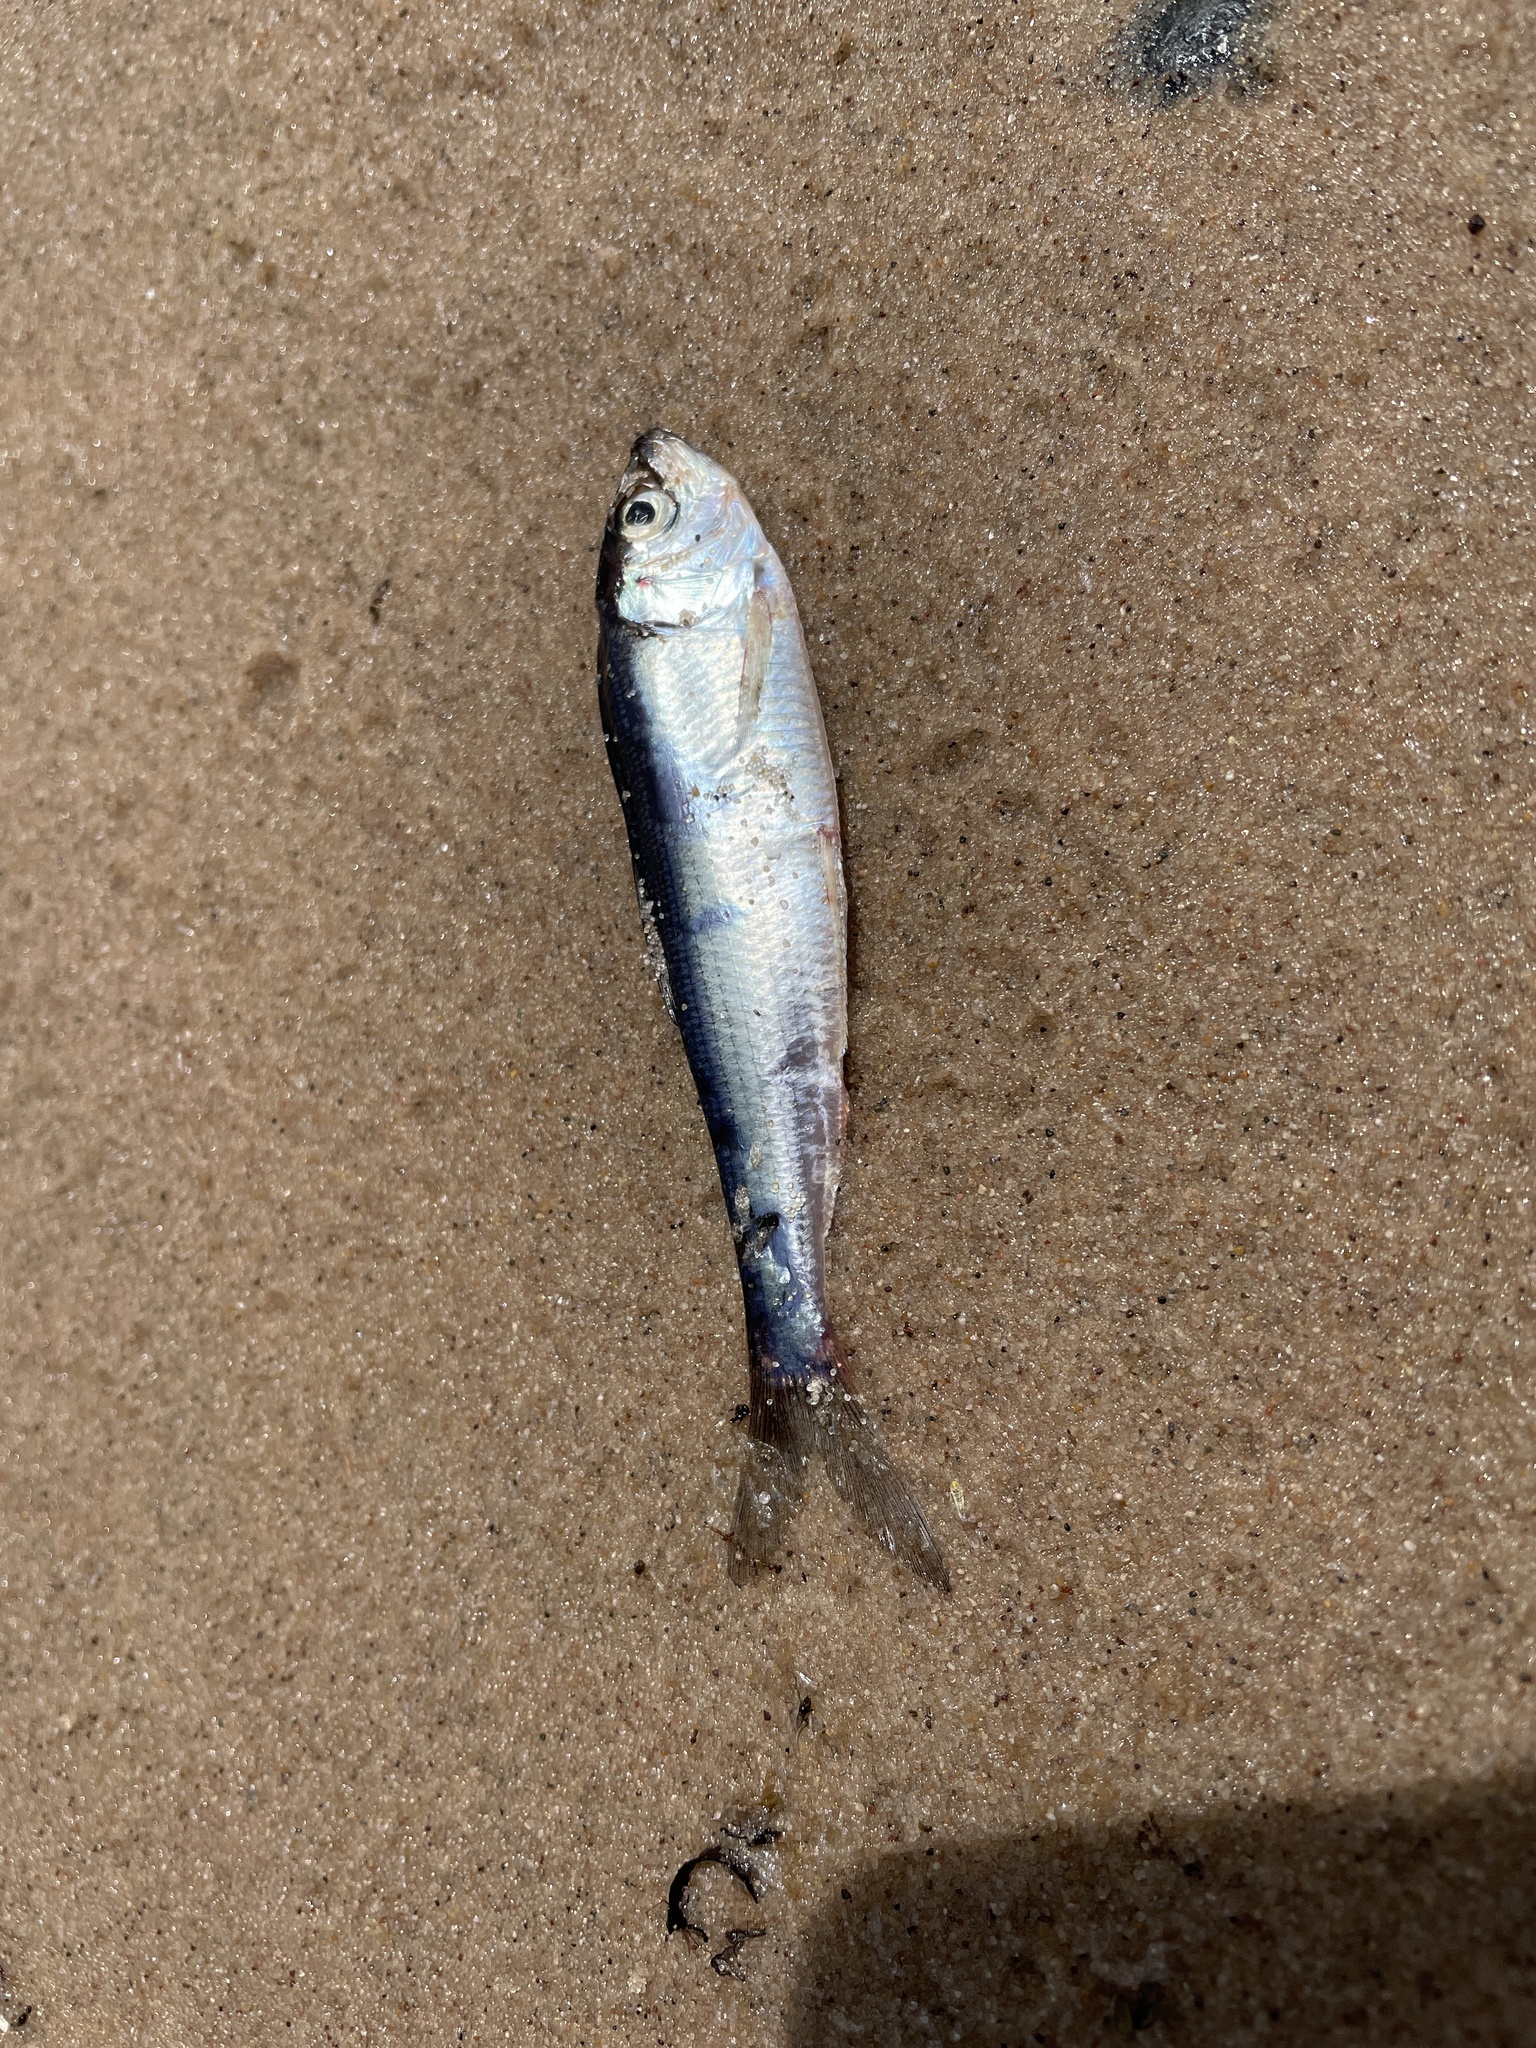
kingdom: Animalia
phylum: Chordata
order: Clupeiformes
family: Clupeidae
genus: Alosa
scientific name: Alosa pseudoharengus
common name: Alewife
